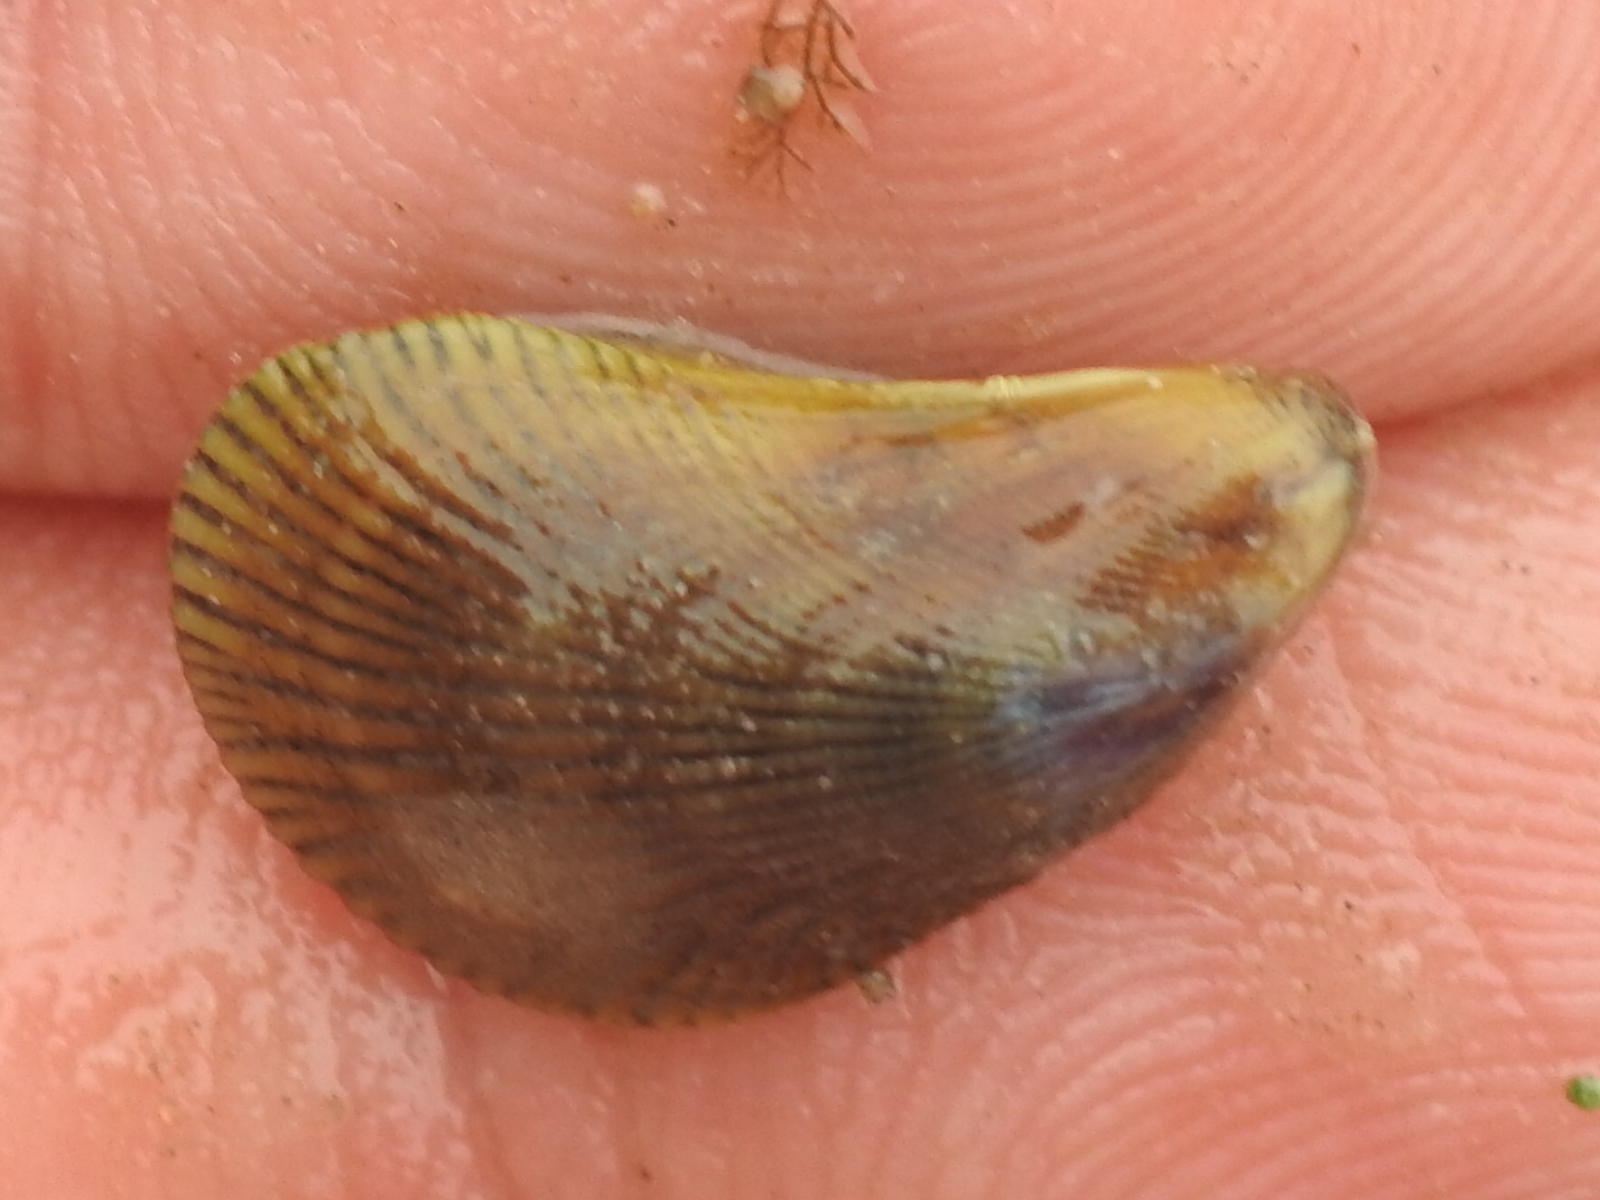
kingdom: Animalia
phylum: Mollusca
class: Bivalvia
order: Mytilida
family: Mytilidae
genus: Ischadium
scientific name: Ischadium recurvum
